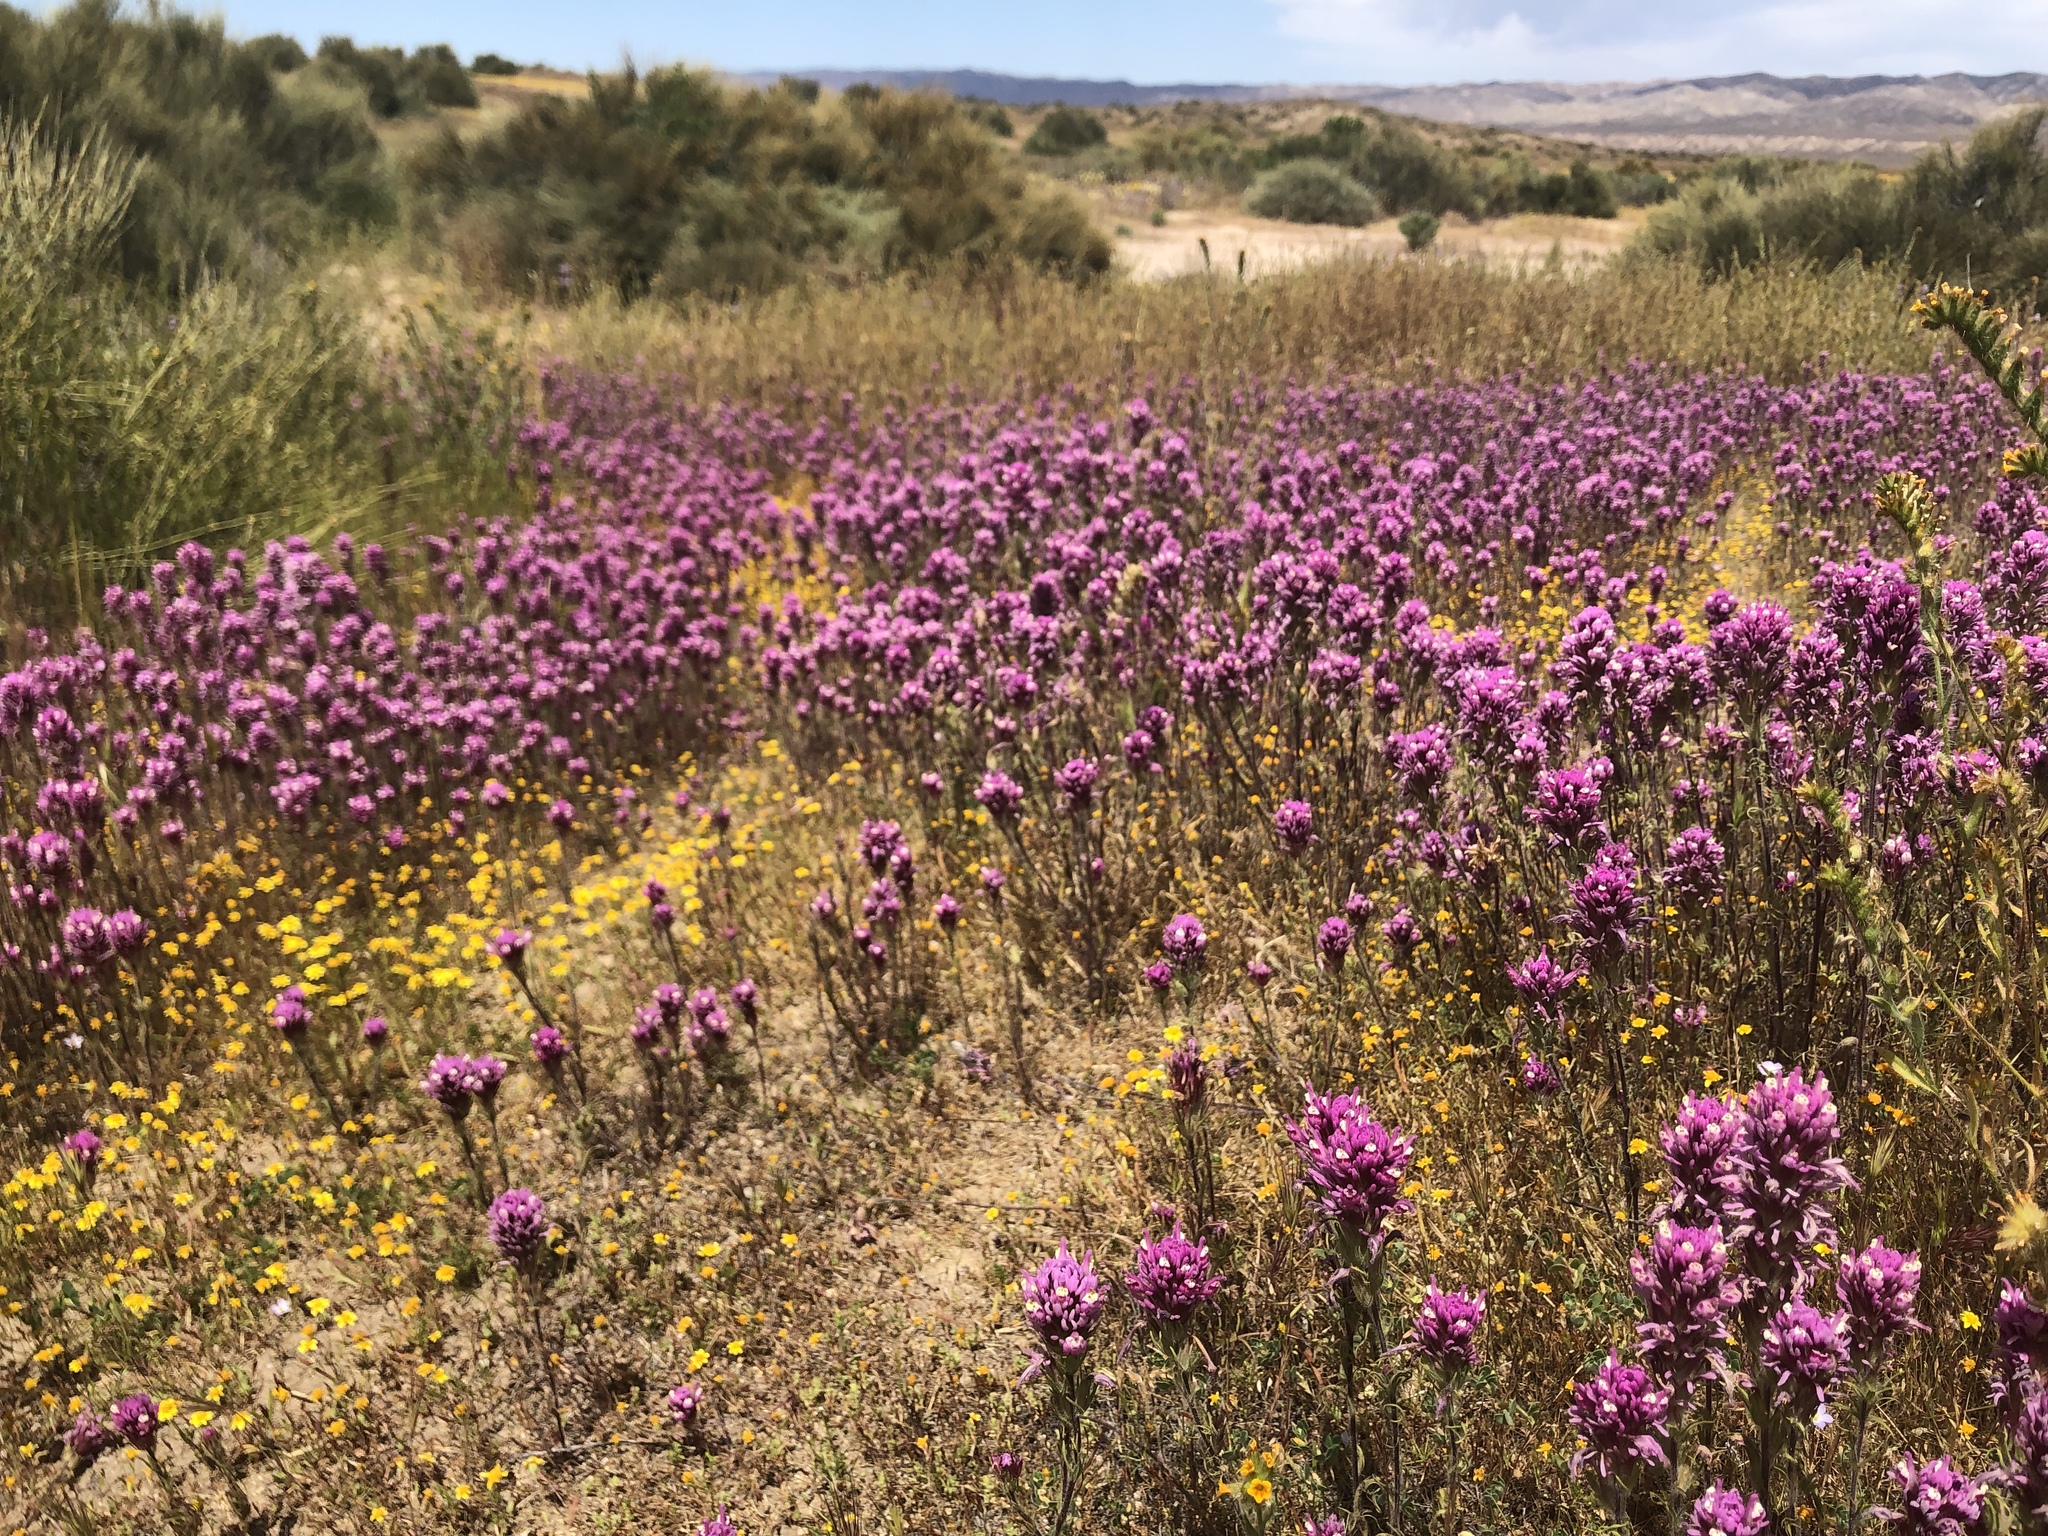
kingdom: Plantae
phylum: Tracheophyta
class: Magnoliopsida
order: Lamiales
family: Orobanchaceae
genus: Castilleja
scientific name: Castilleja exserta
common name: Purple owl-clover
